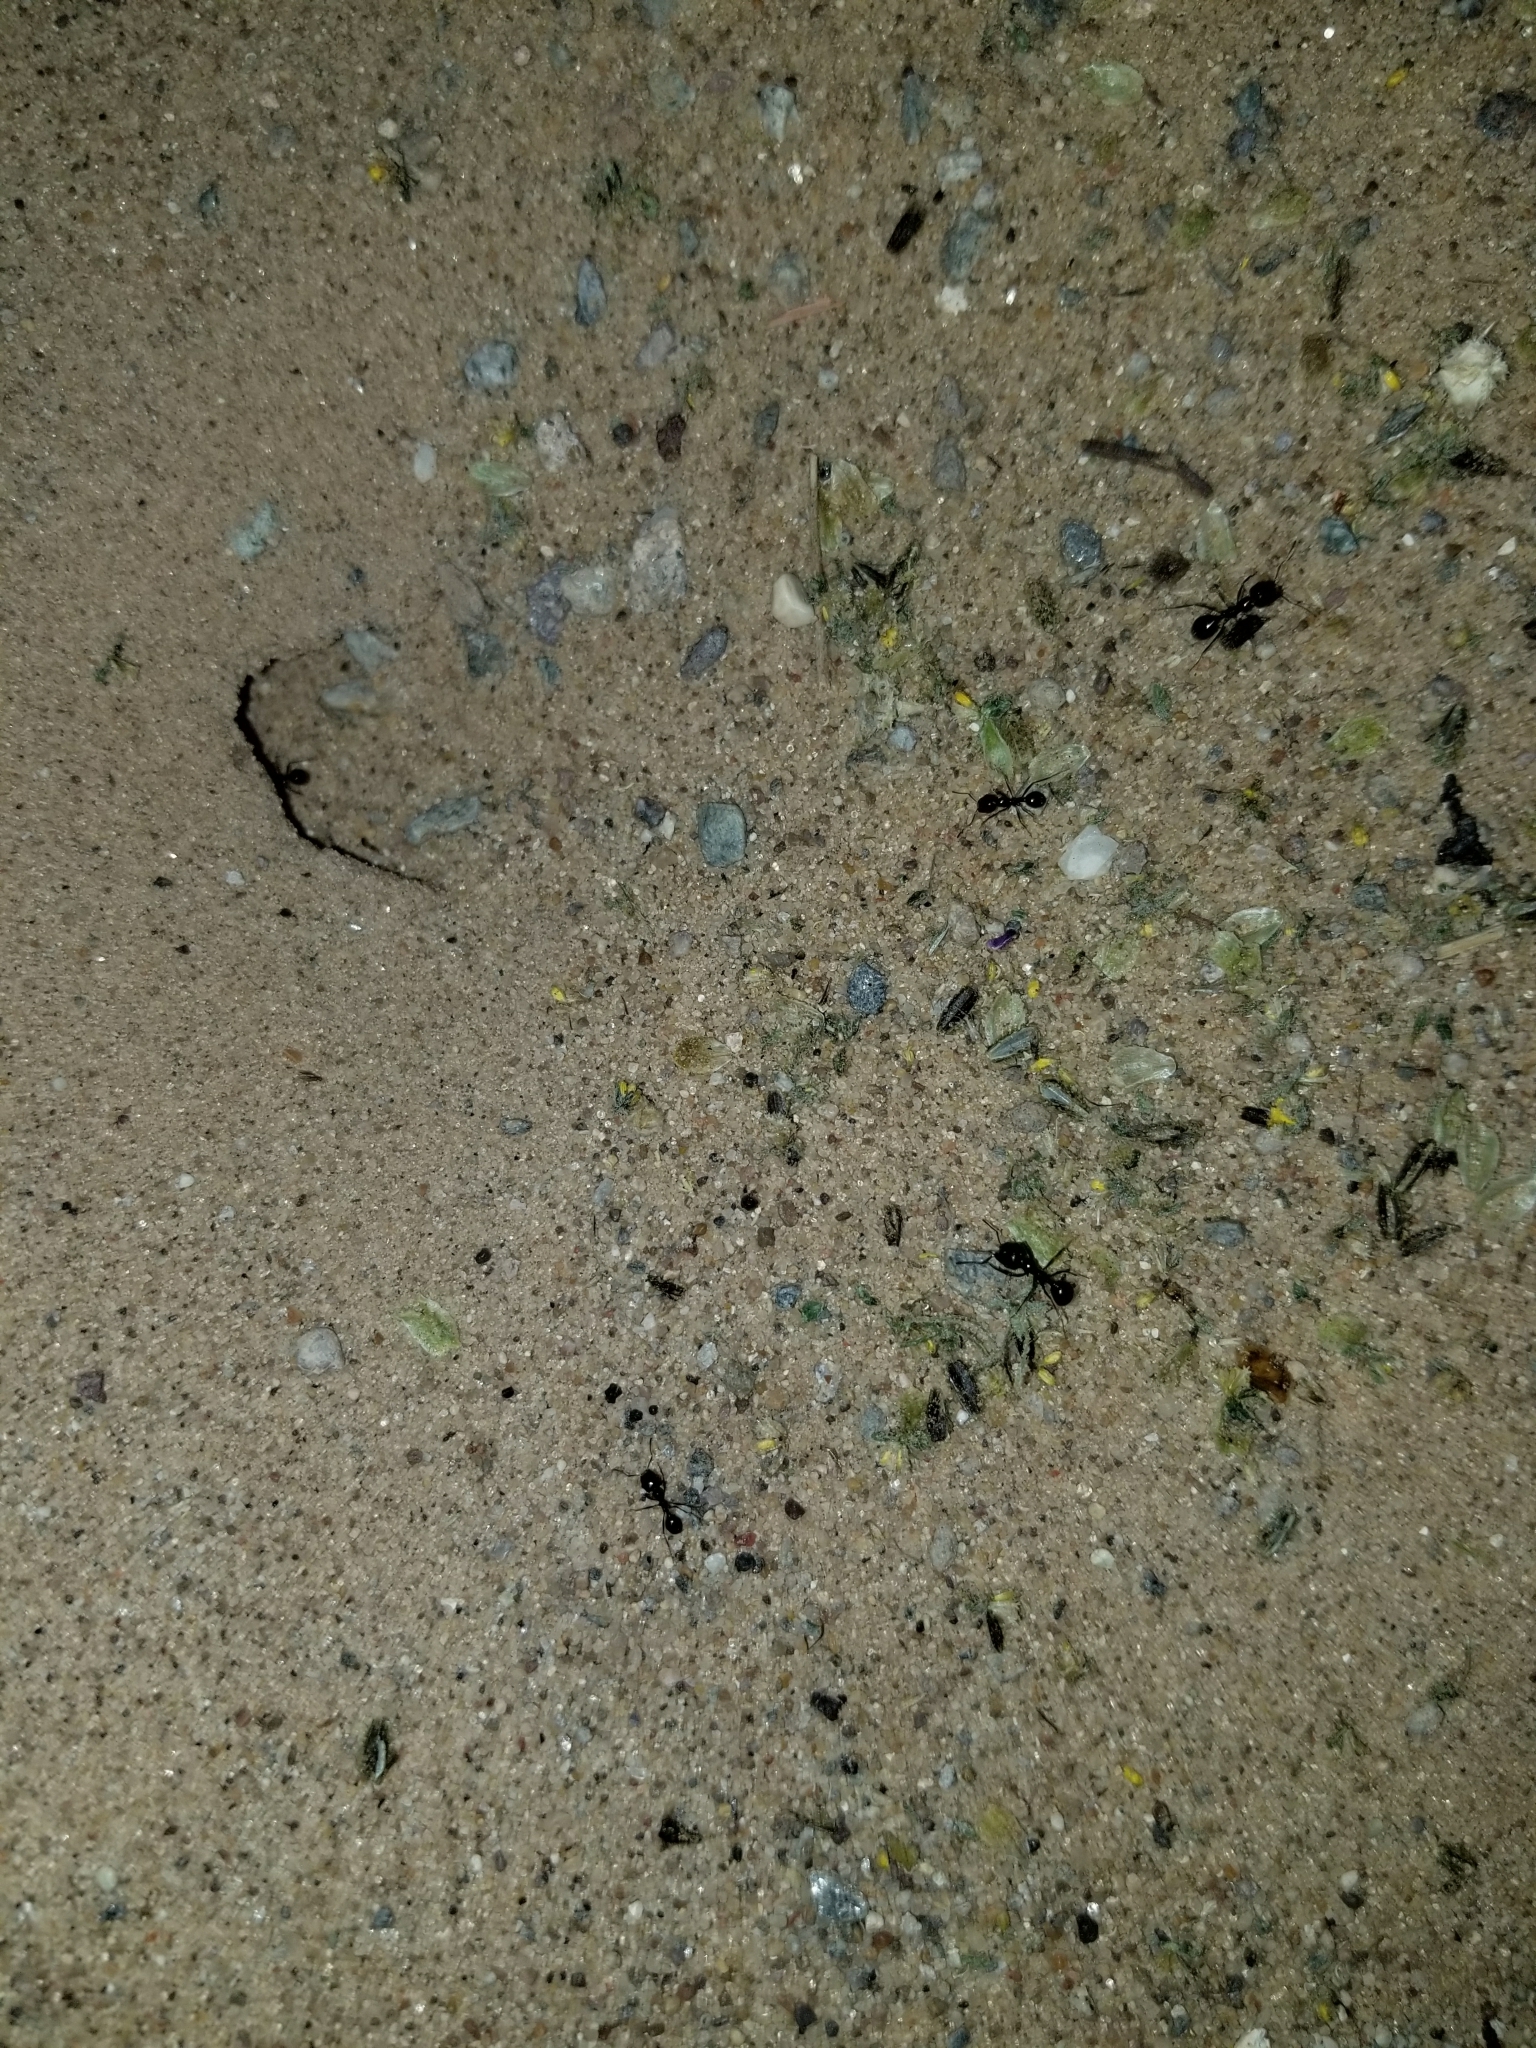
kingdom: Animalia
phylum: Arthropoda
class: Insecta
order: Hymenoptera
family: Formicidae
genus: Messor
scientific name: Messor pergandei
